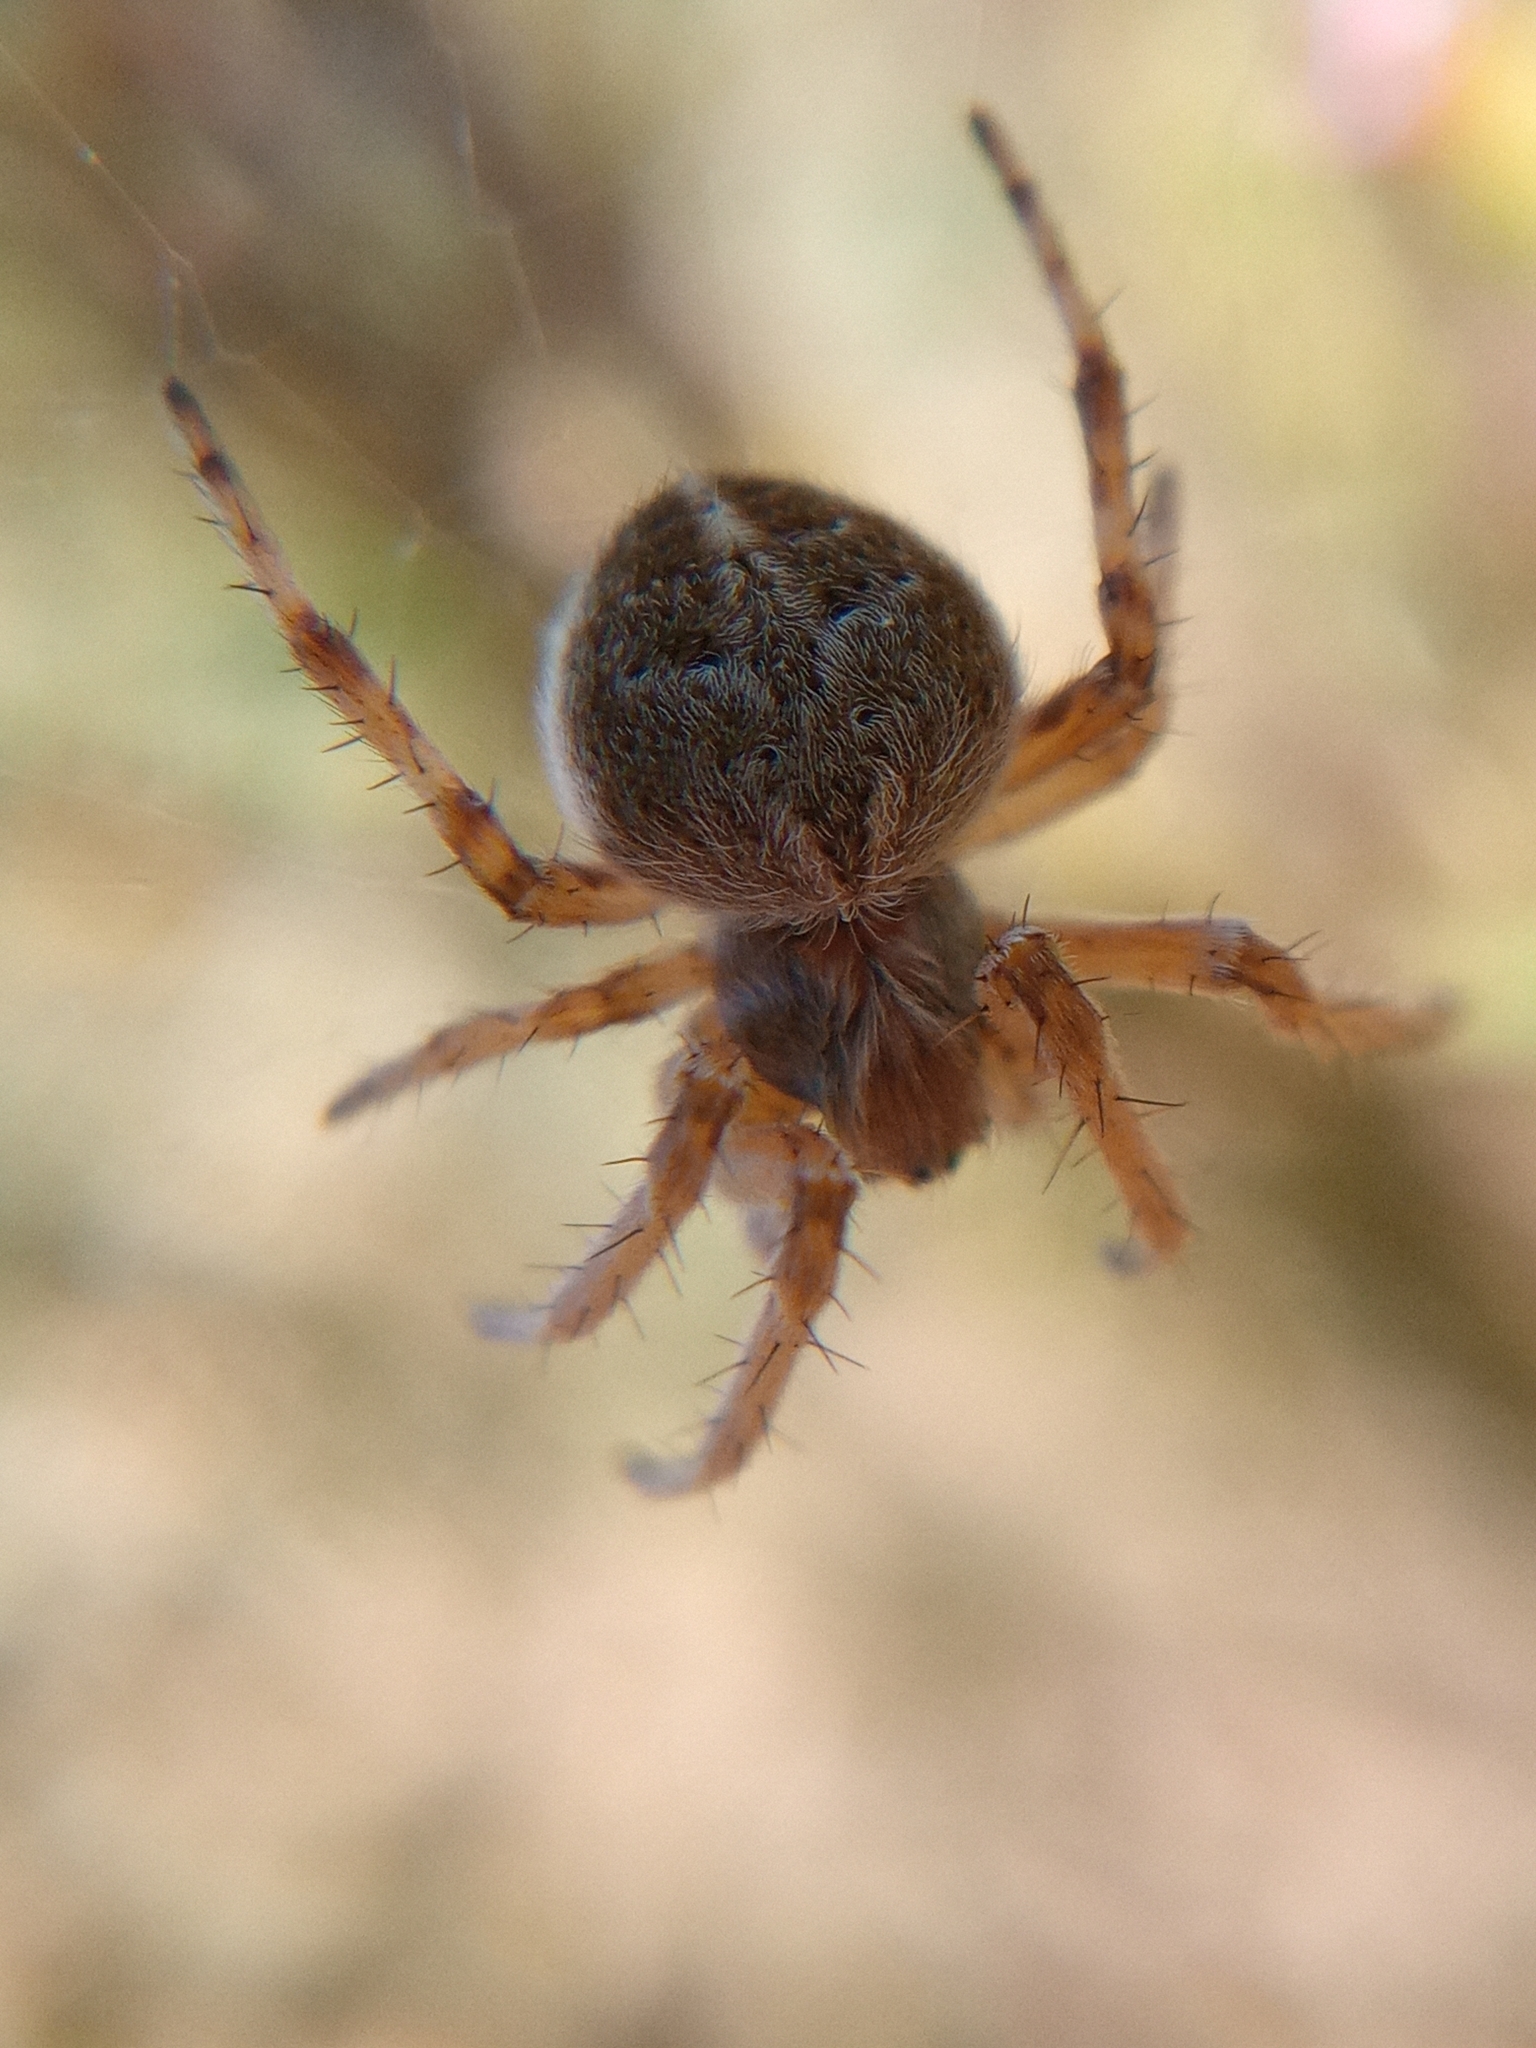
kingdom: Animalia
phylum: Arthropoda
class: Arachnida
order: Araneae
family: Araneidae
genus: Agalenatea
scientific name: Agalenatea redii
